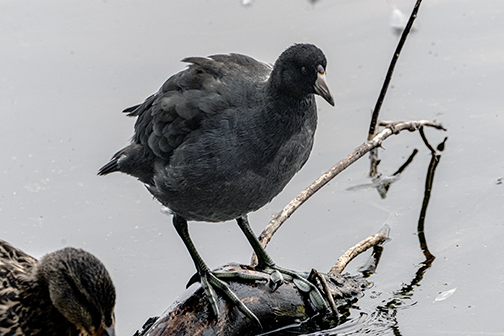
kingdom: Animalia
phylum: Chordata
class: Aves
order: Gruiformes
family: Rallidae
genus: Fulica
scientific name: Fulica americana
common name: American coot
